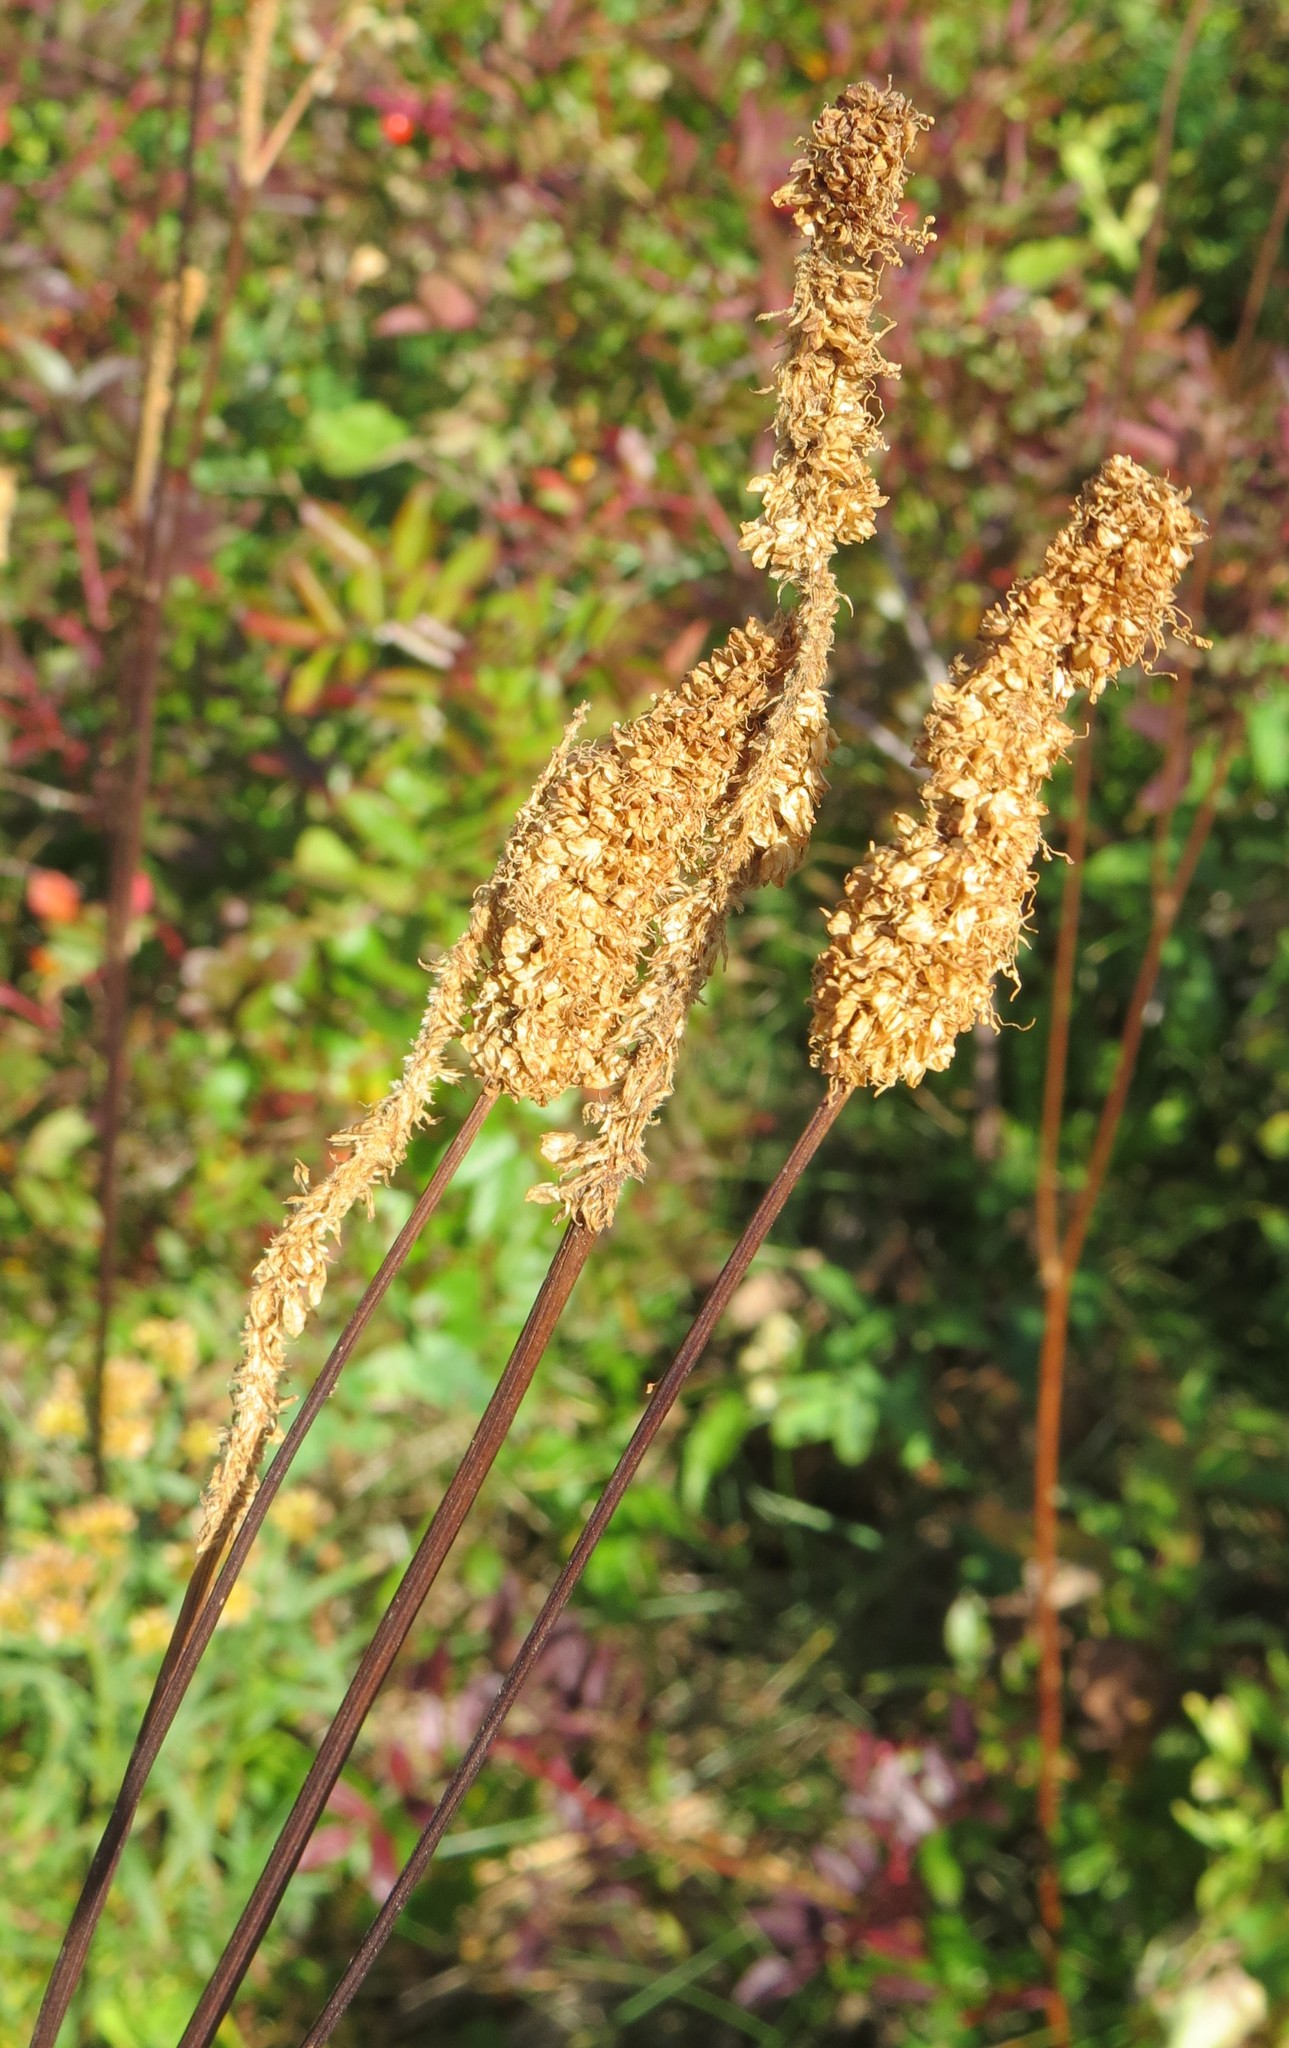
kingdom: Plantae
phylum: Tracheophyta
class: Magnoliopsida
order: Rosales
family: Rosaceae
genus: Sanguisorba
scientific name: Sanguisorba canadensis
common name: White burnet
